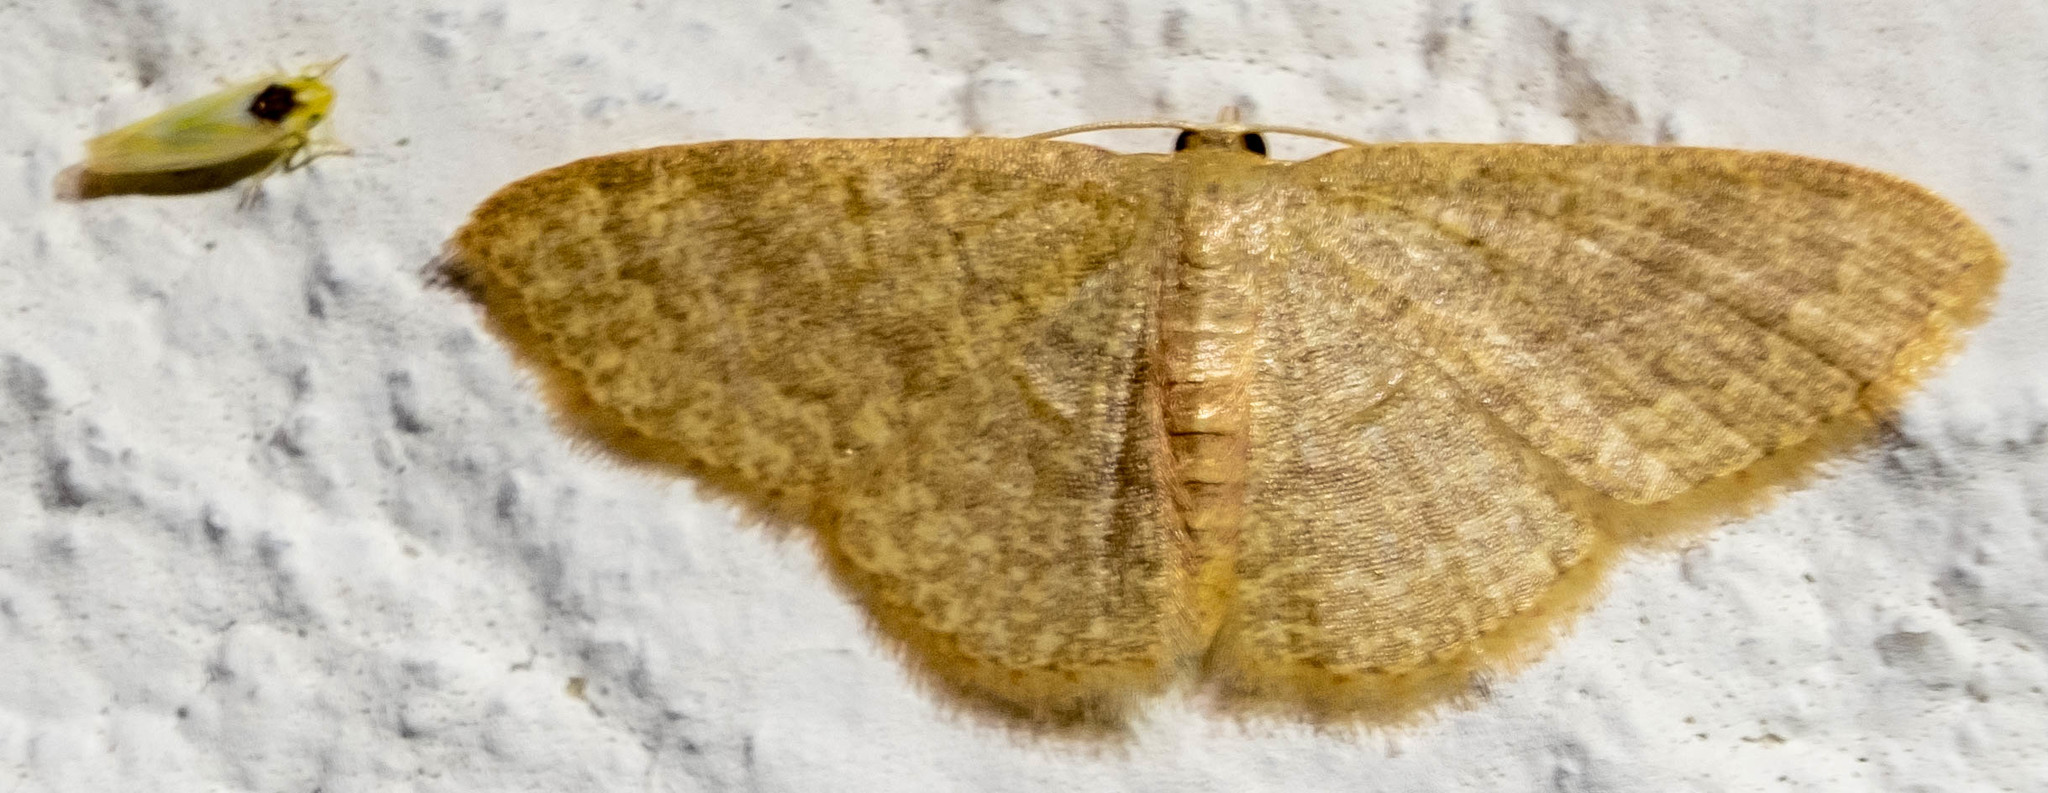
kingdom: Animalia
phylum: Arthropoda
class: Insecta
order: Lepidoptera
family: Geometridae
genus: Pleuroprucha
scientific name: Pleuroprucha insulsaria
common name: Common tan wave
